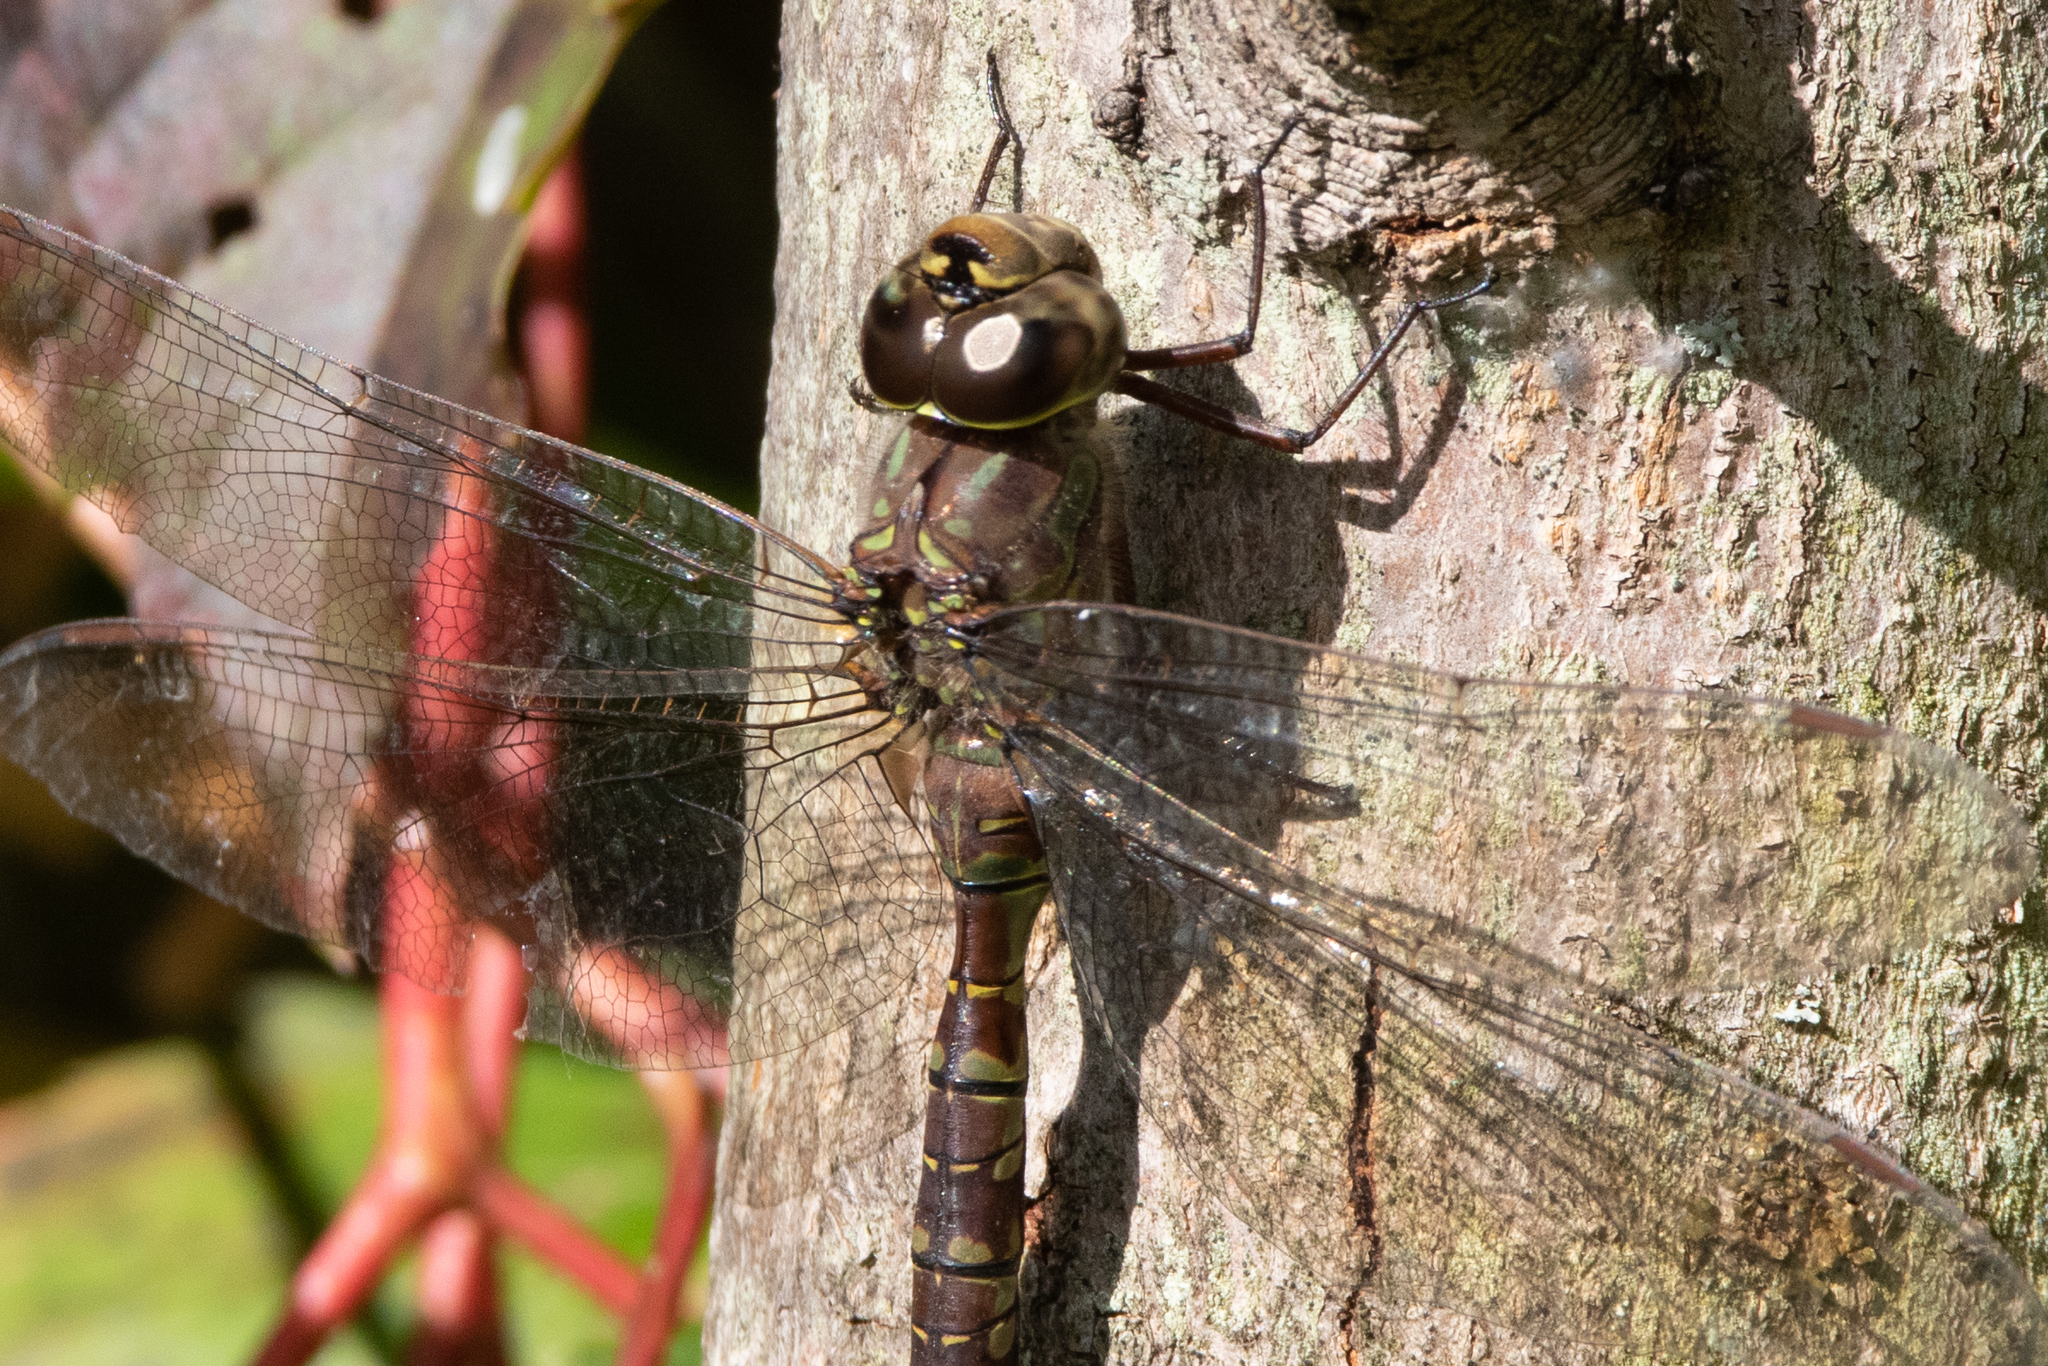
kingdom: Animalia
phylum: Arthropoda
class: Insecta
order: Odonata
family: Aeshnidae
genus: Aeshna
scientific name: Aeshna canadensis
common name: Canada darner
